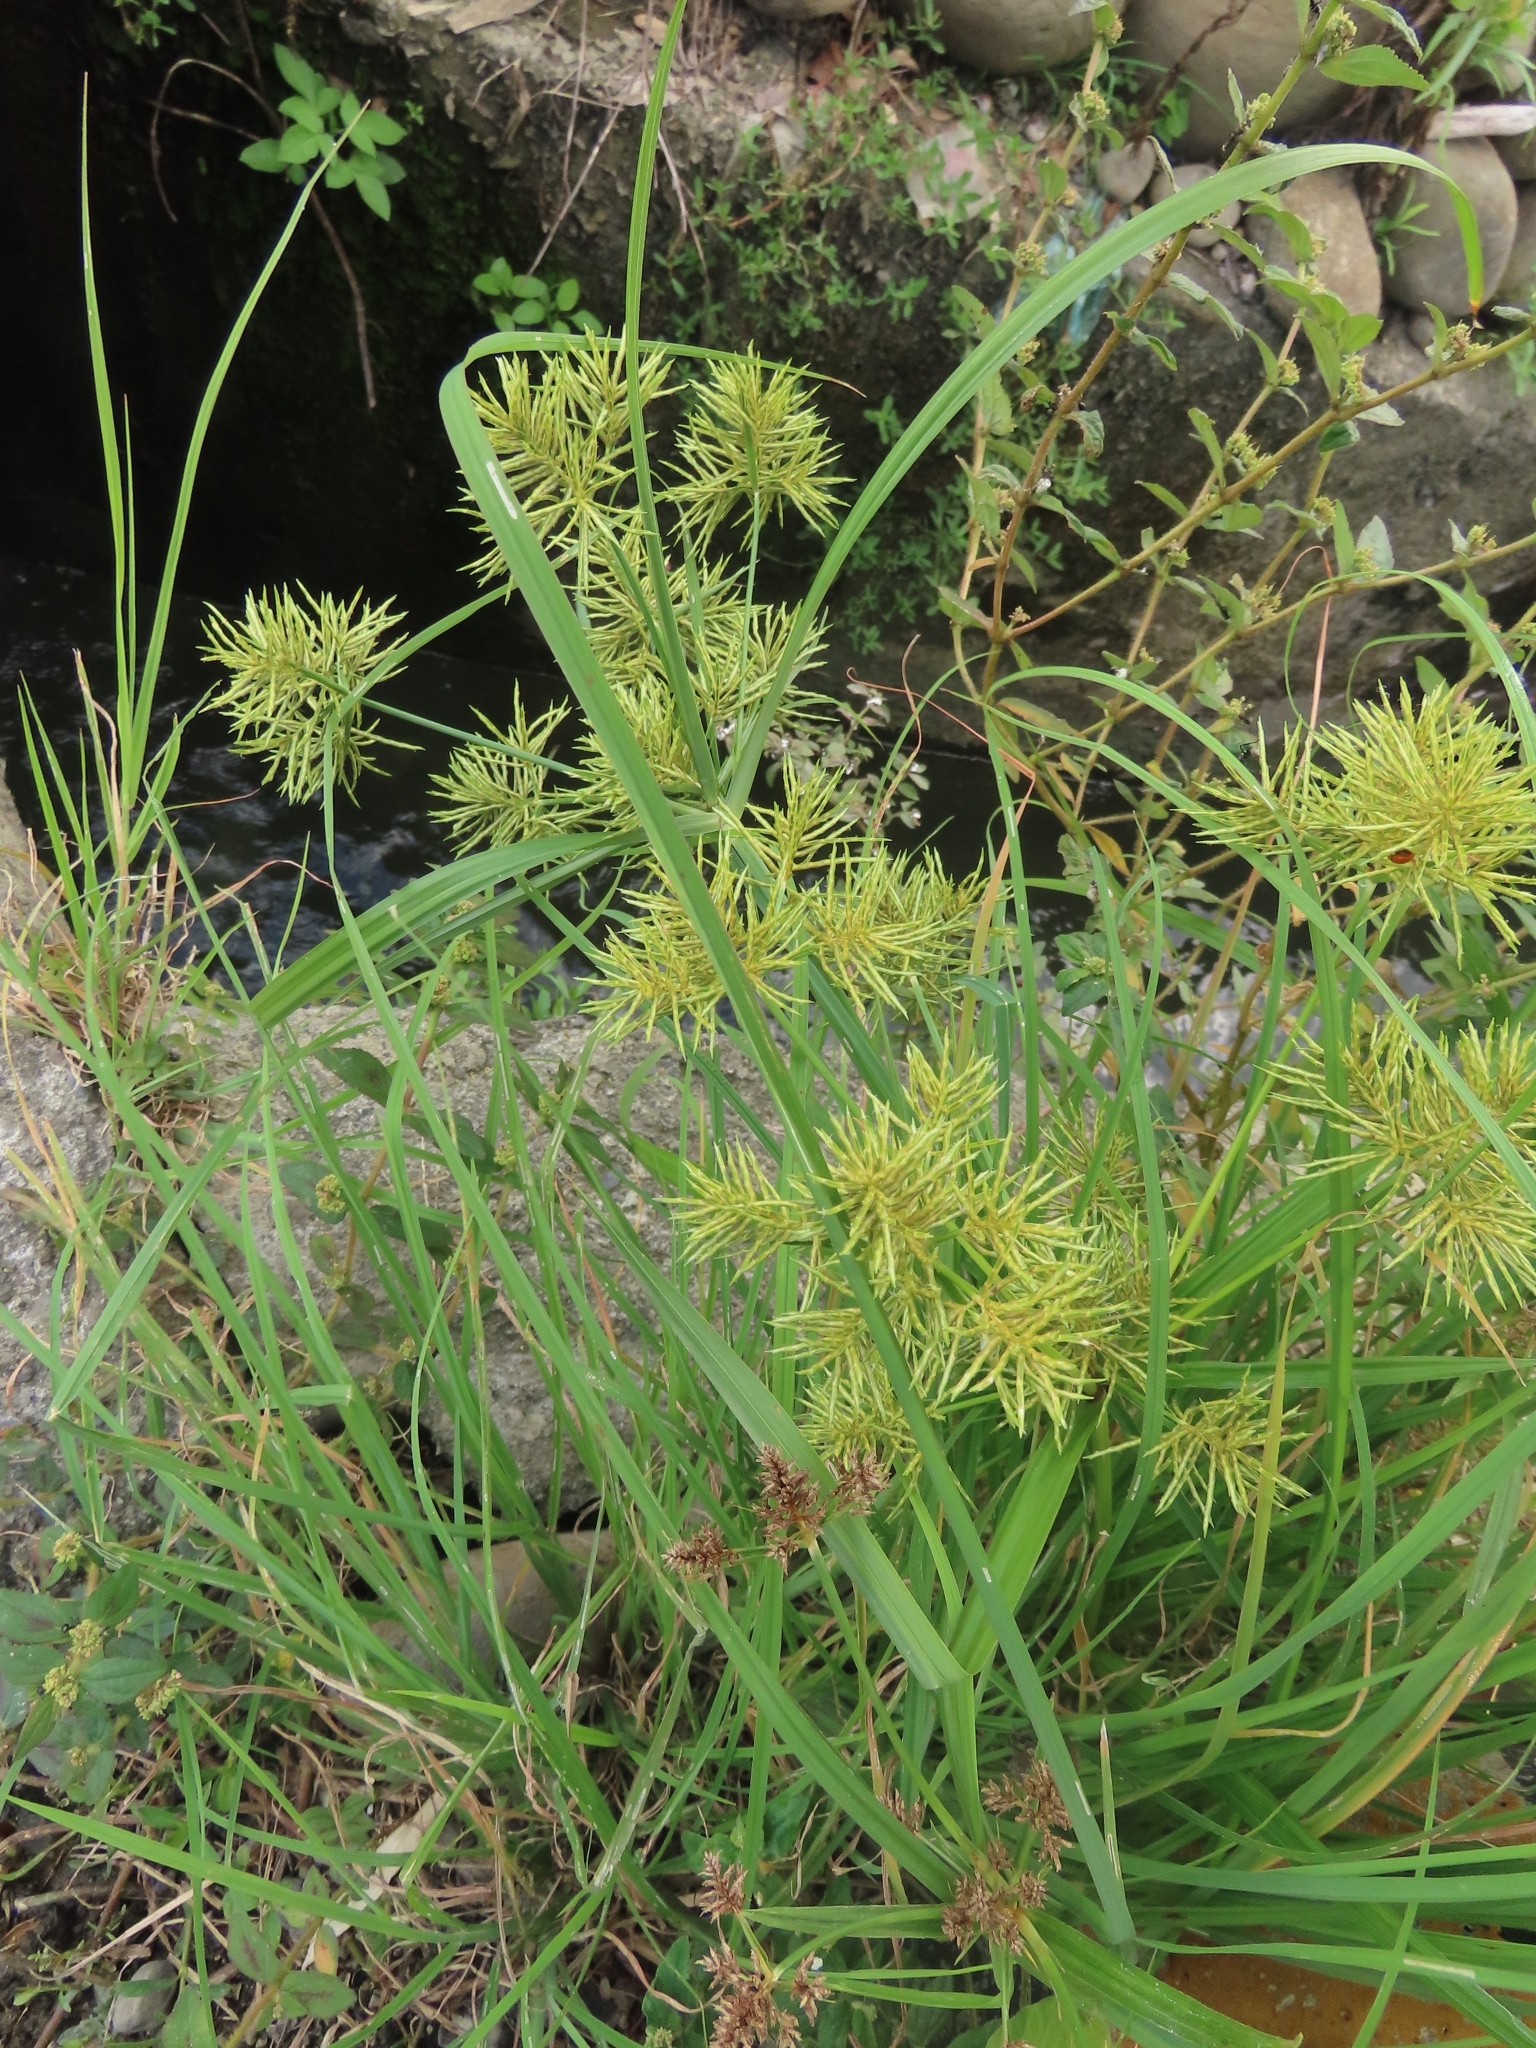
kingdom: Plantae
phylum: Tracheophyta
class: Liliopsida
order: Poales
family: Cyperaceae
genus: Cyperus
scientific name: Cyperus odoratus
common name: Fragrant flatsedge
